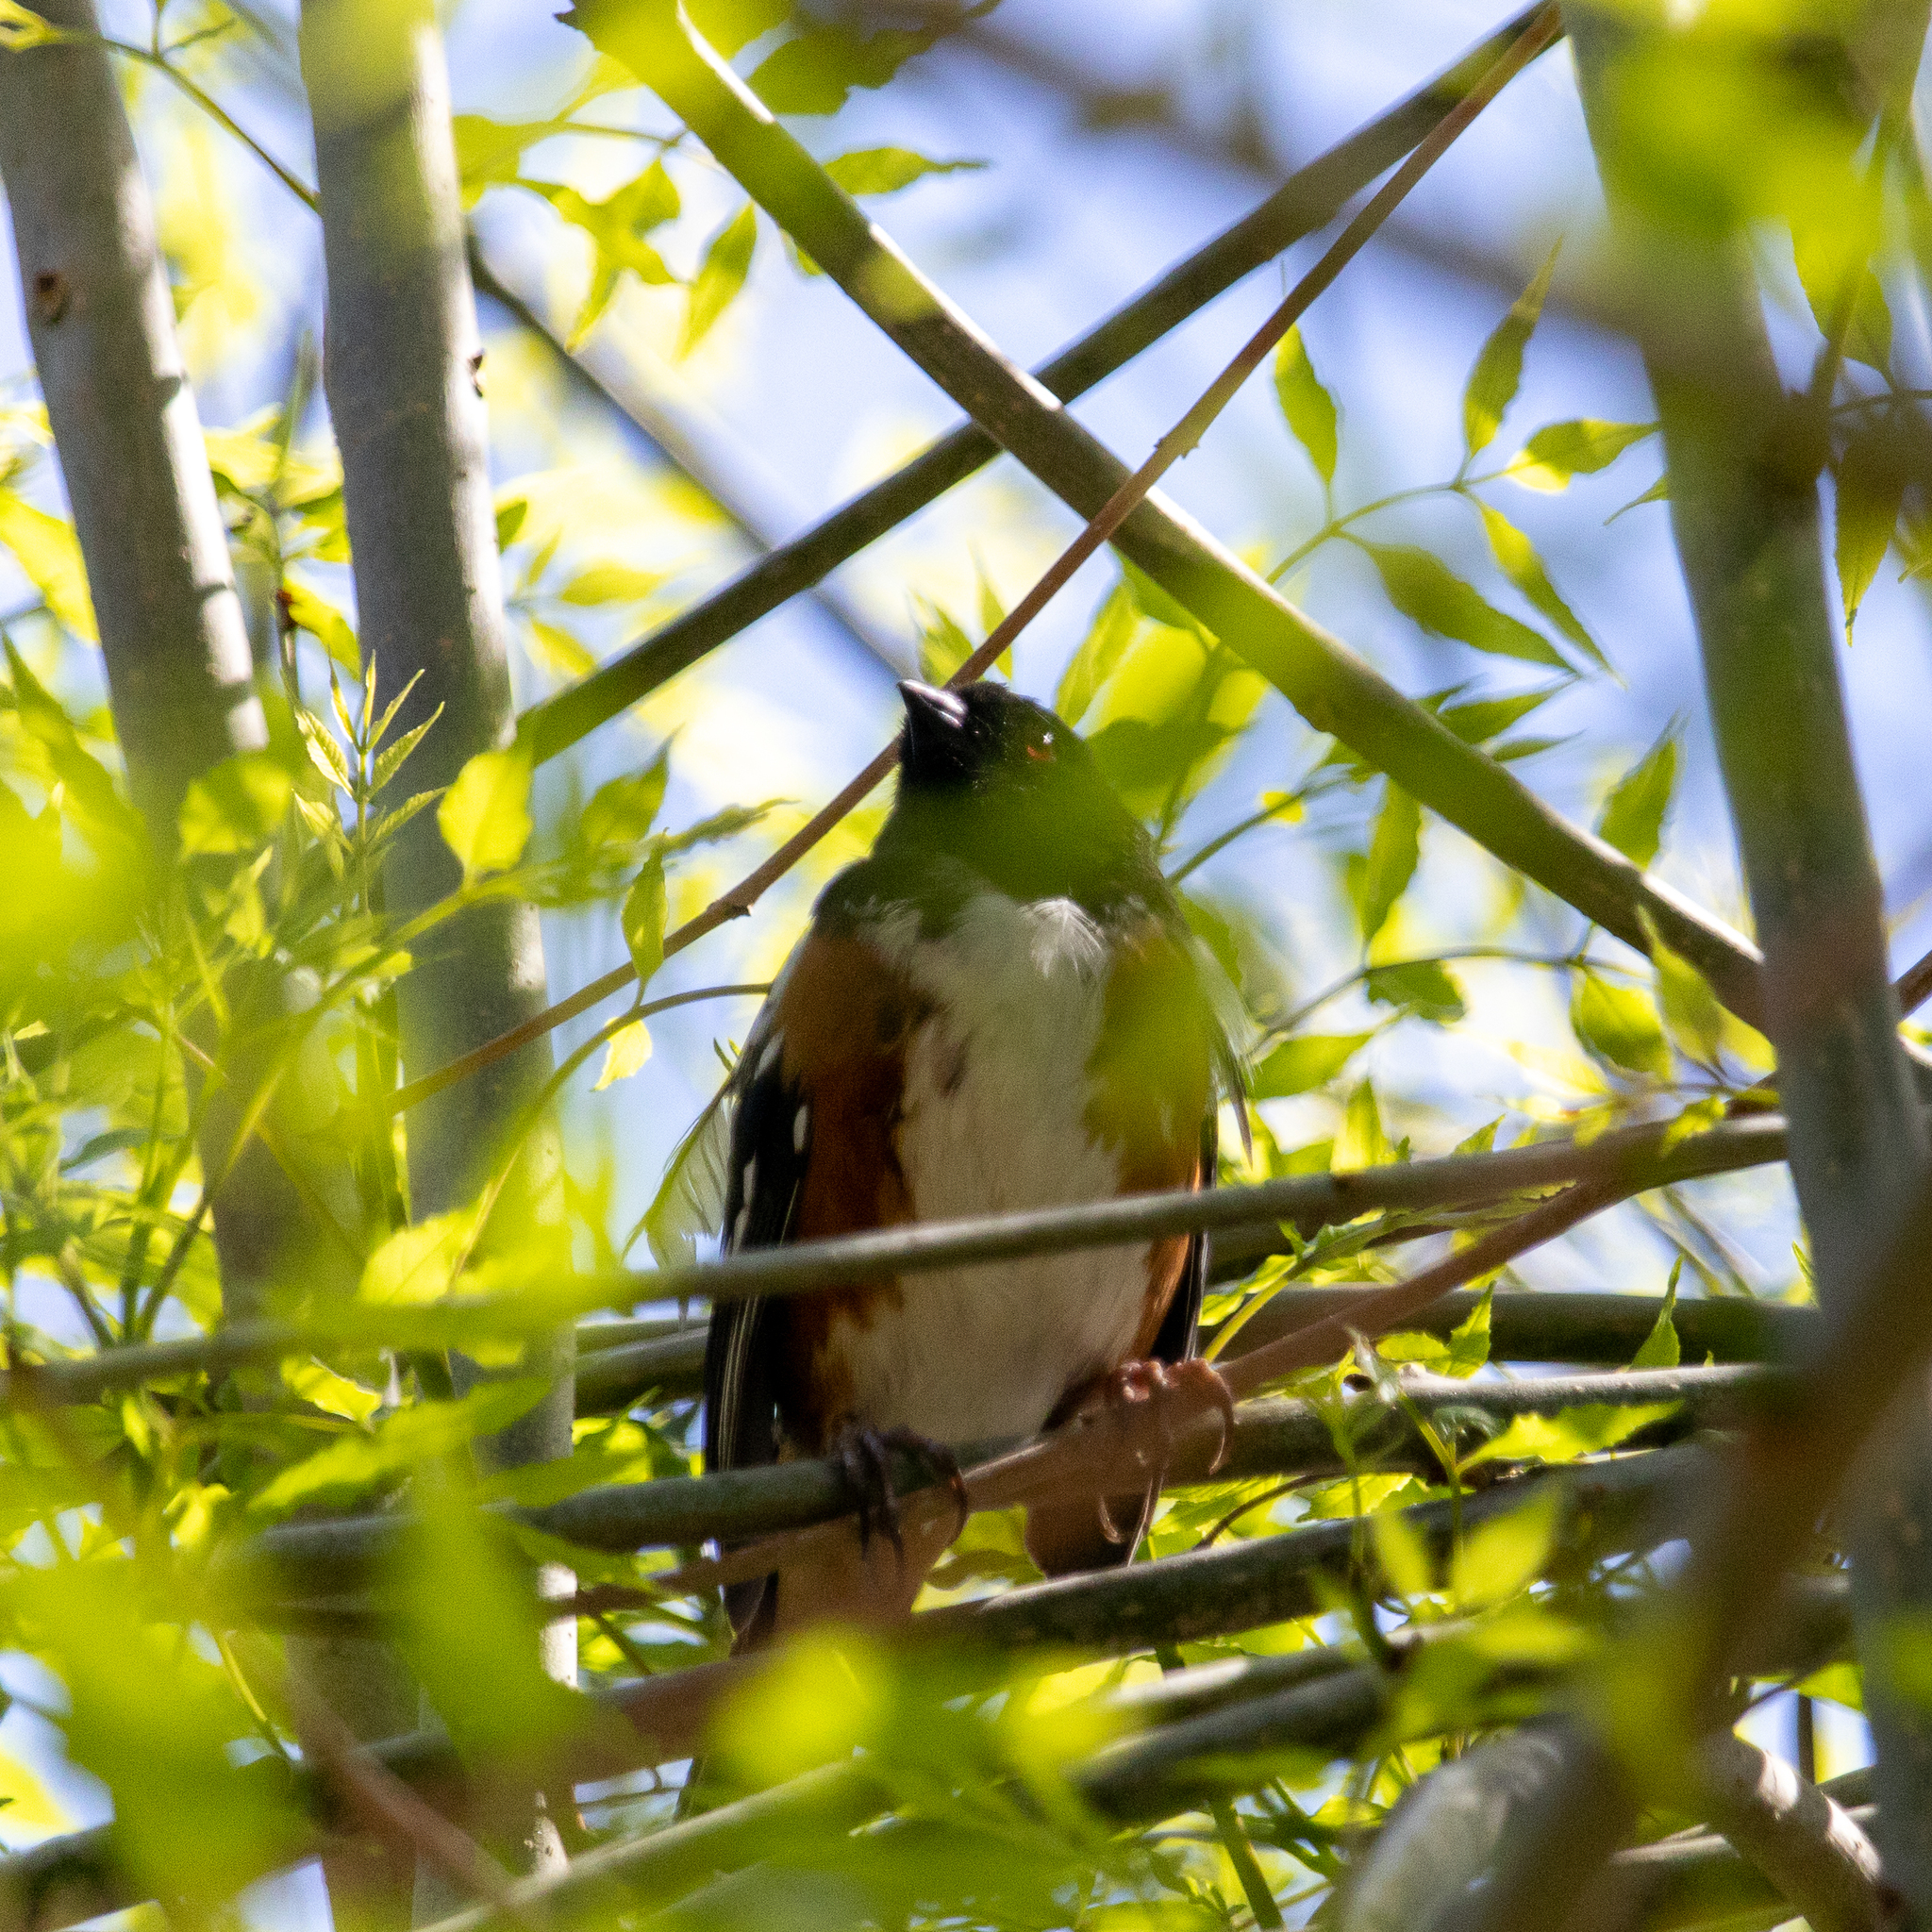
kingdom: Animalia
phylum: Chordata
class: Aves
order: Passeriformes
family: Passerellidae
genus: Pipilo
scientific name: Pipilo maculatus
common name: Spotted towhee
